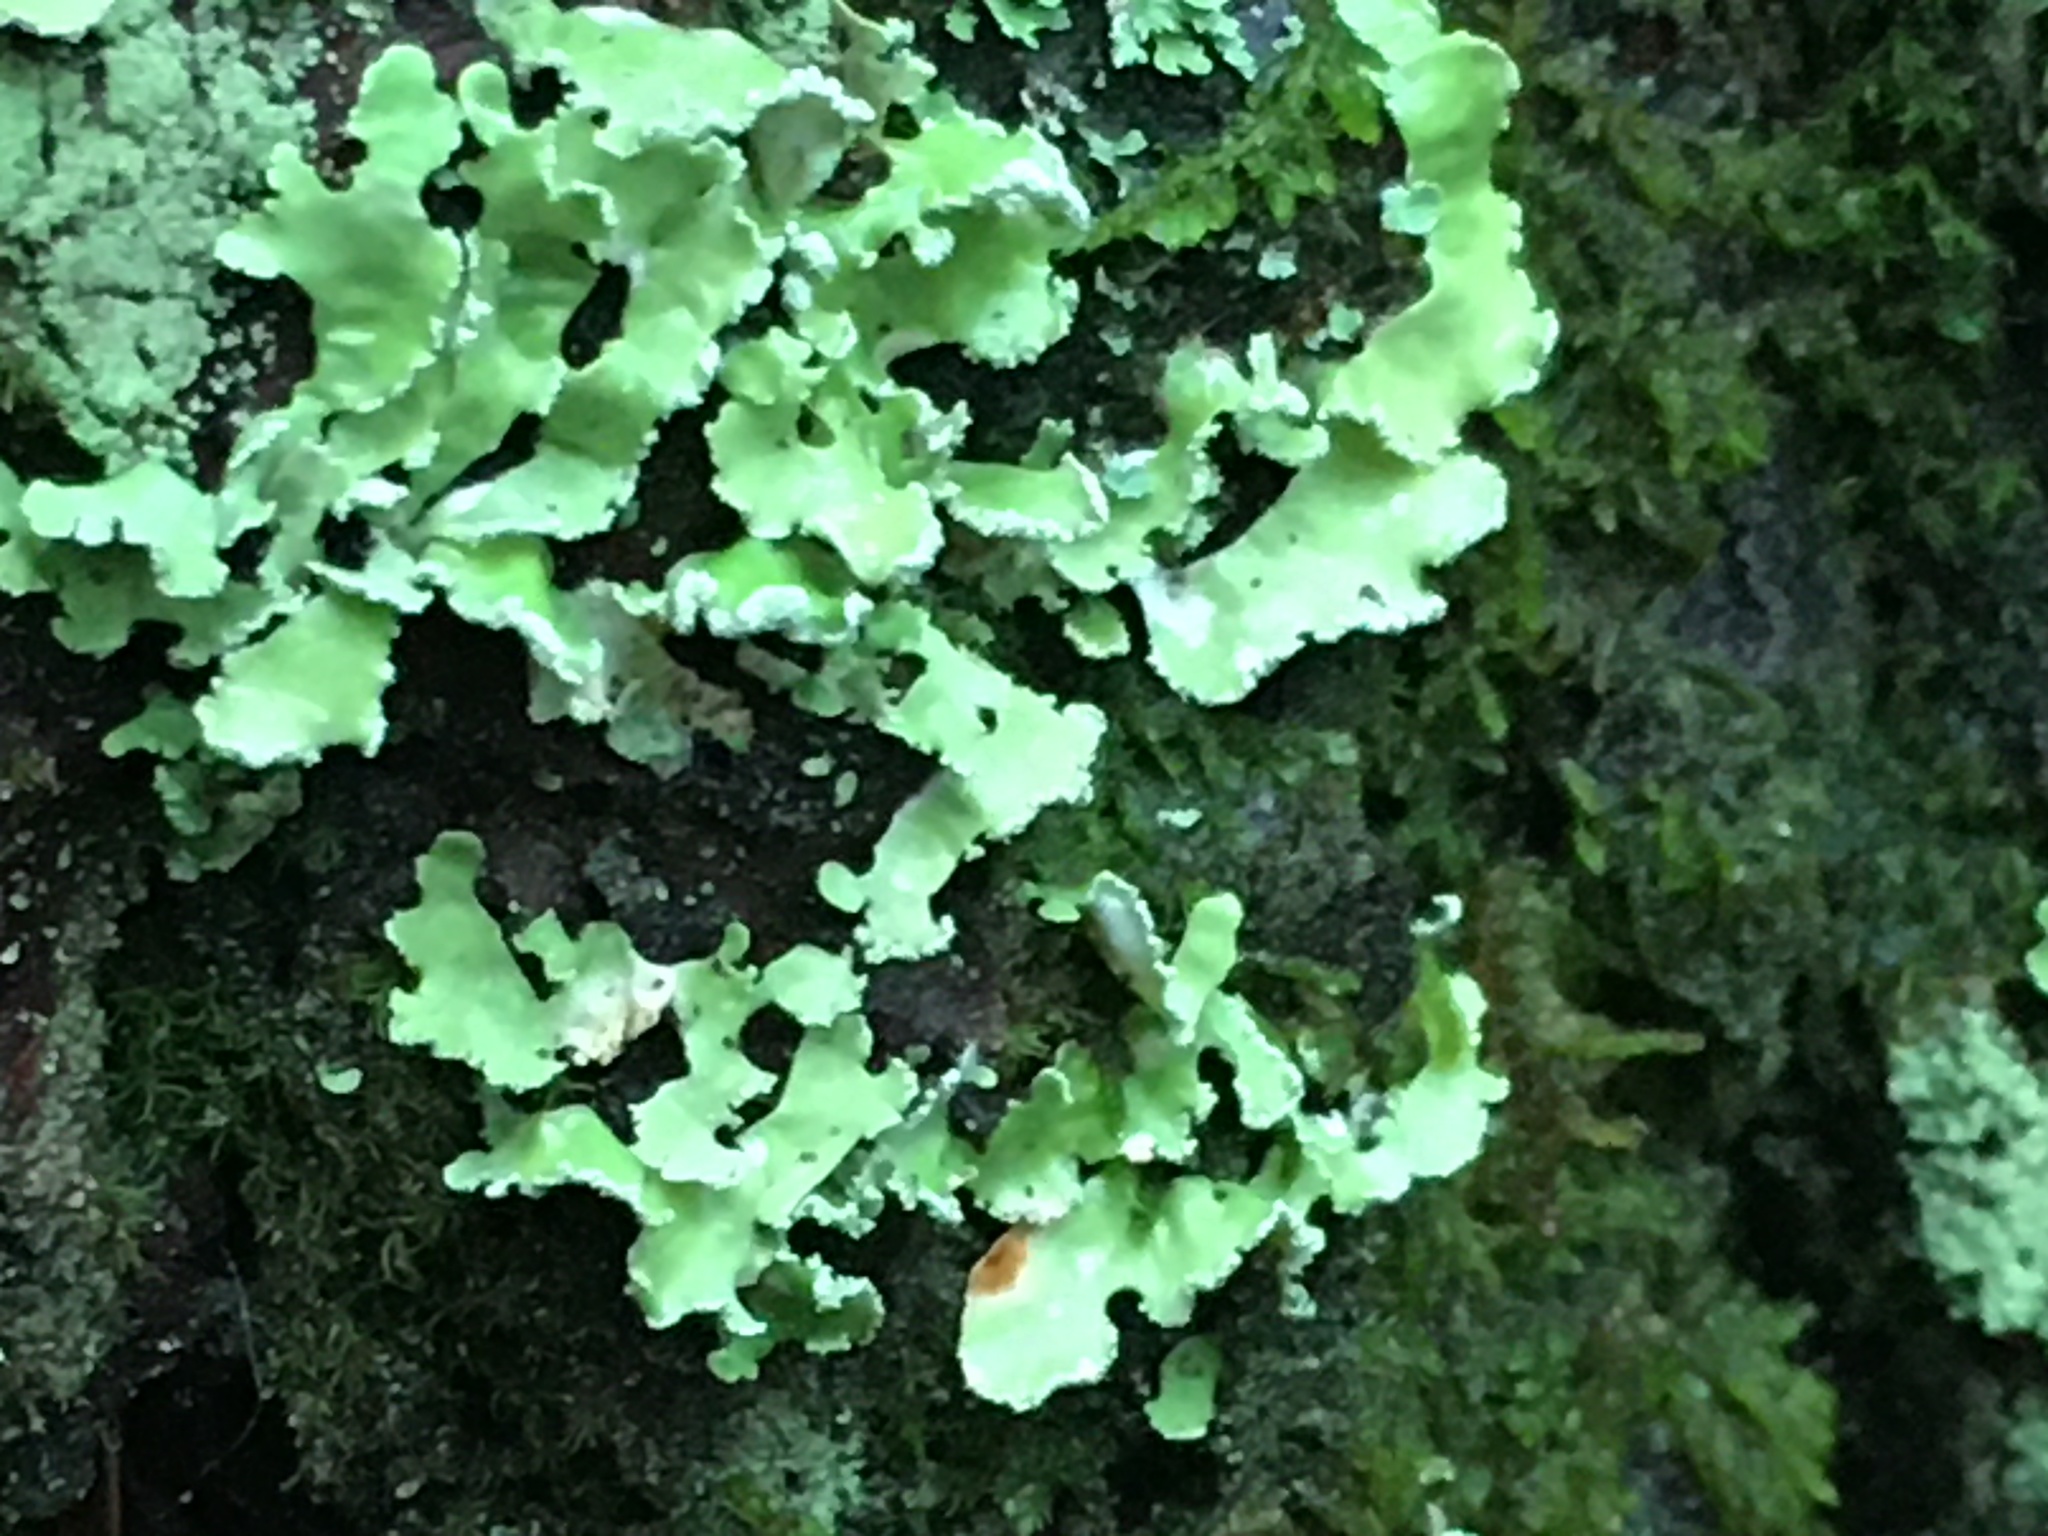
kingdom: Fungi
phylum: Ascomycota
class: Lecanoromycetes
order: Lecanorales
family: Parmeliaceae
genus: Usnocetraria
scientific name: Usnocetraria oakesiana
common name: Yellow ribbon lichen
